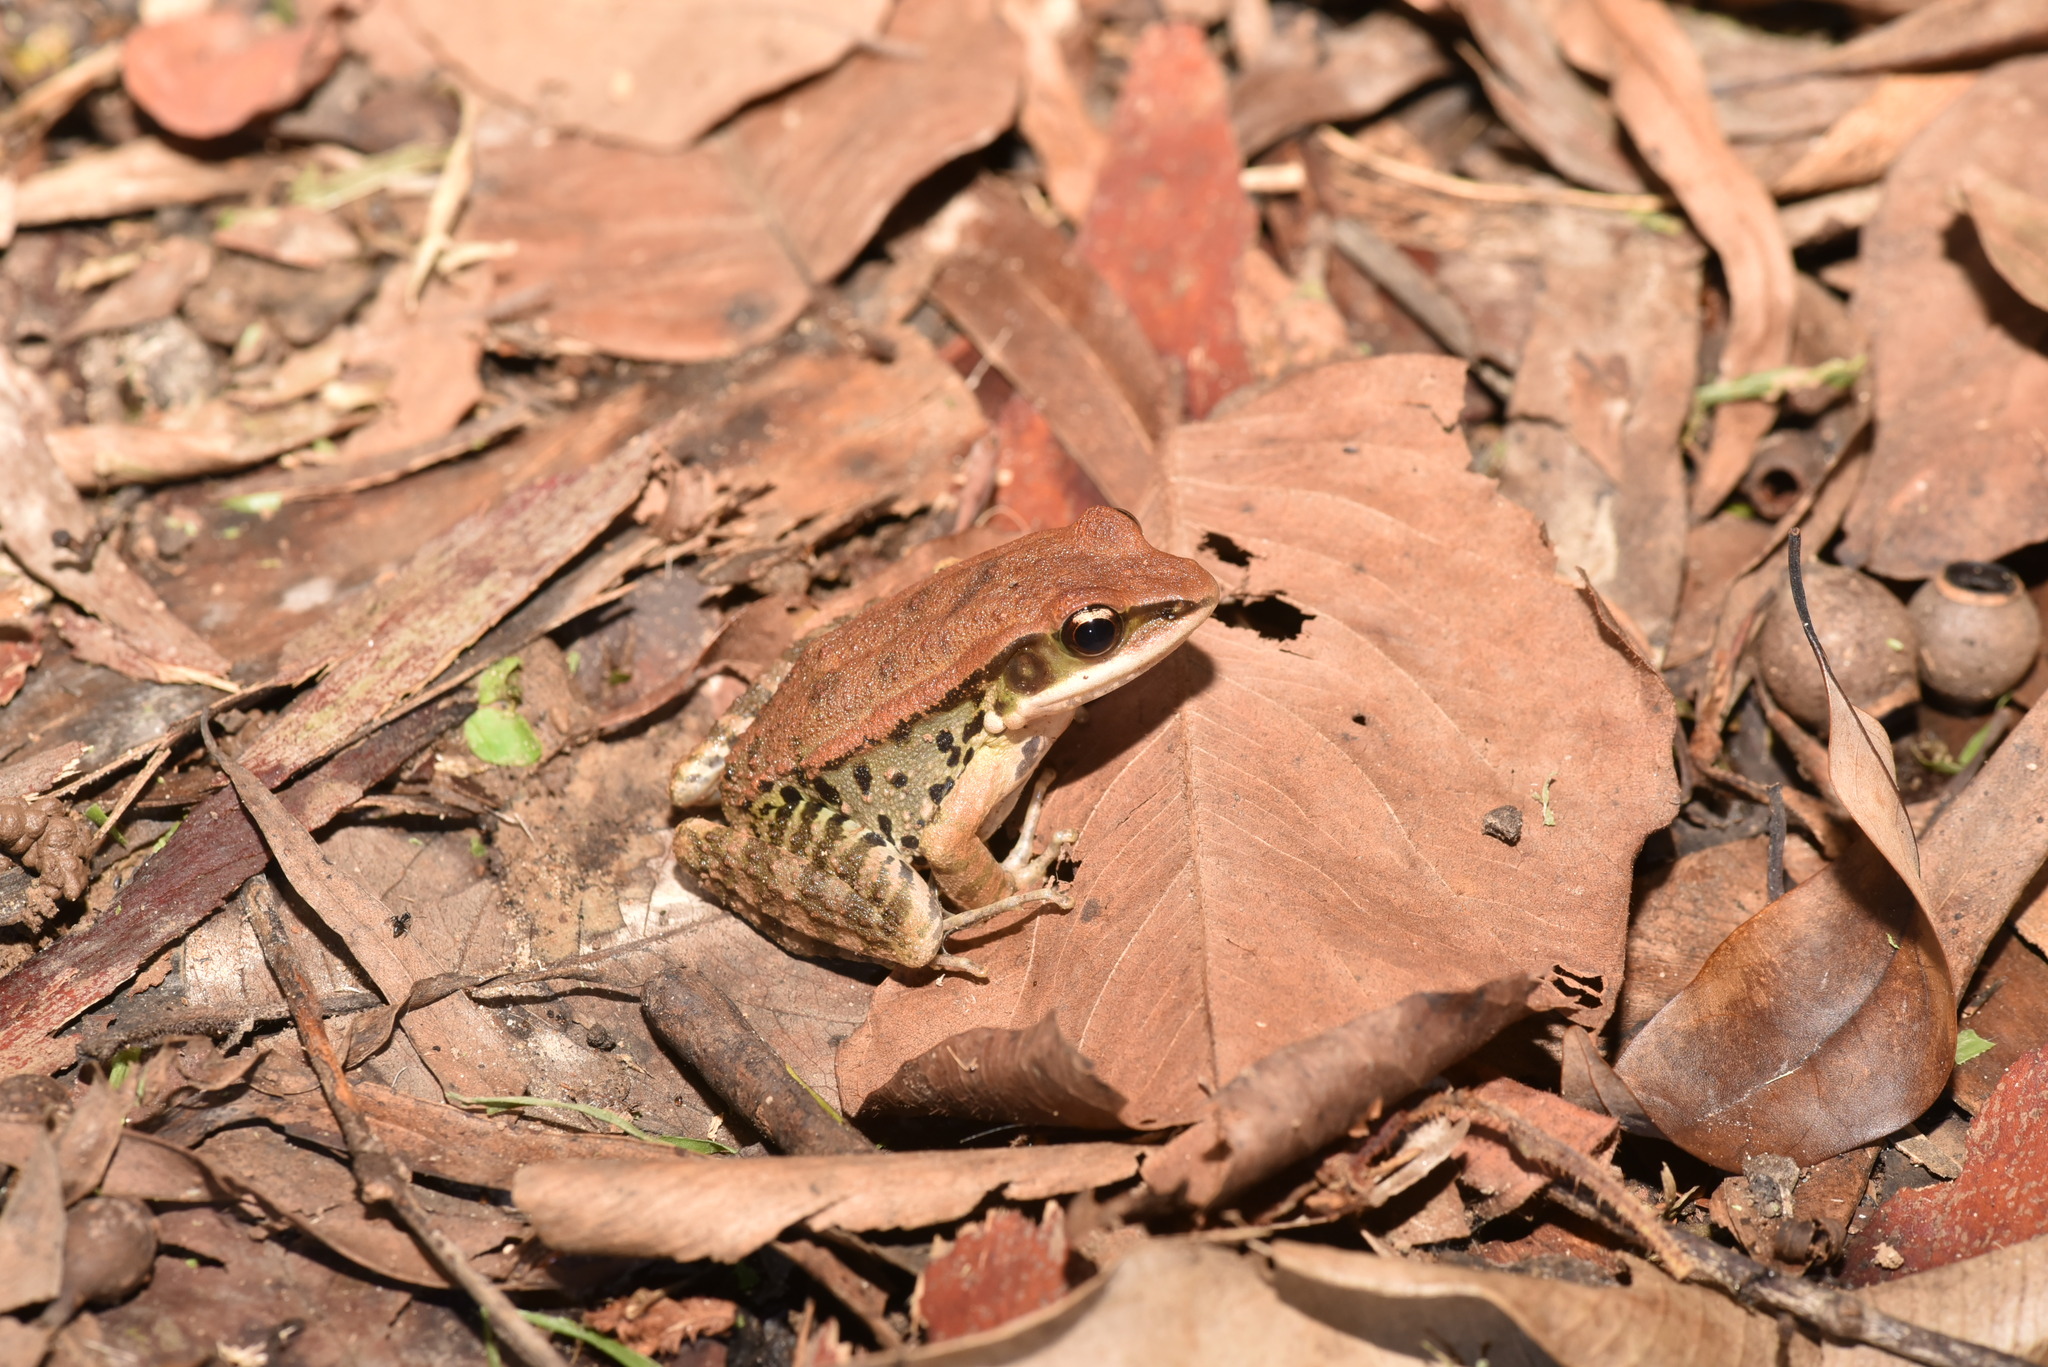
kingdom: Animalia
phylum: Chordata
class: Amphibia
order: Anura
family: Ranidae
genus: Hylarana
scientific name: Hylarana latouchii
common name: Broad-folded frog
